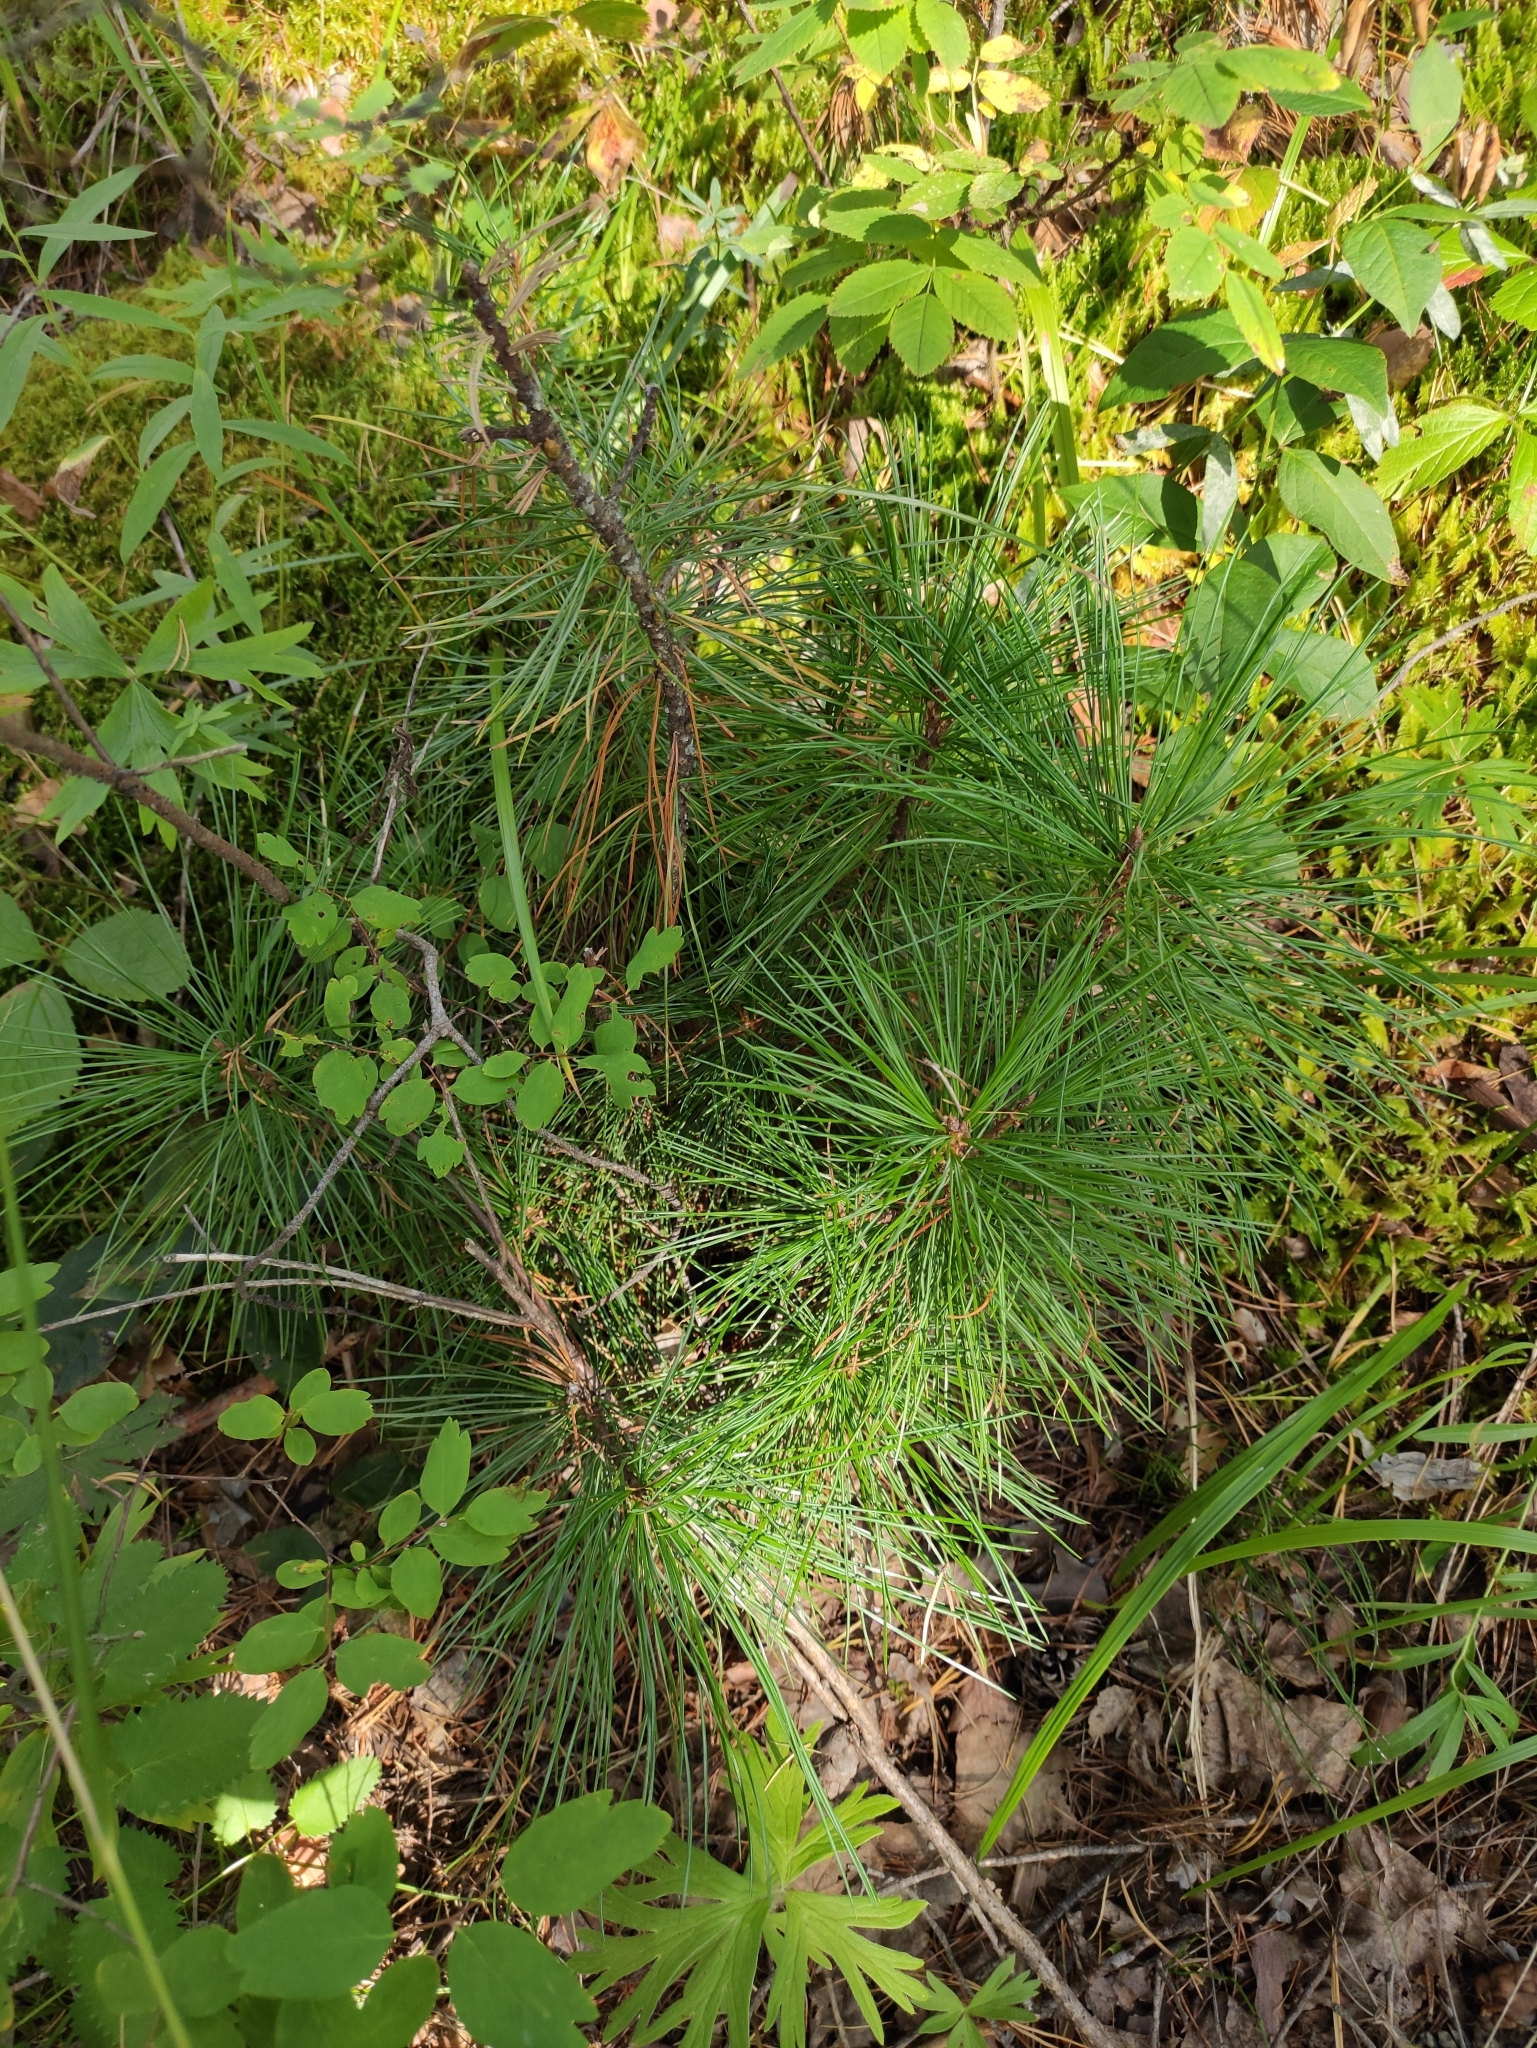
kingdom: Plantae
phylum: Tracheophyta
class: Pinopsida
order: Pinales
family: Pinaceae
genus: Pinus
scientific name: Pinus sibirica
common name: Siberian pine
